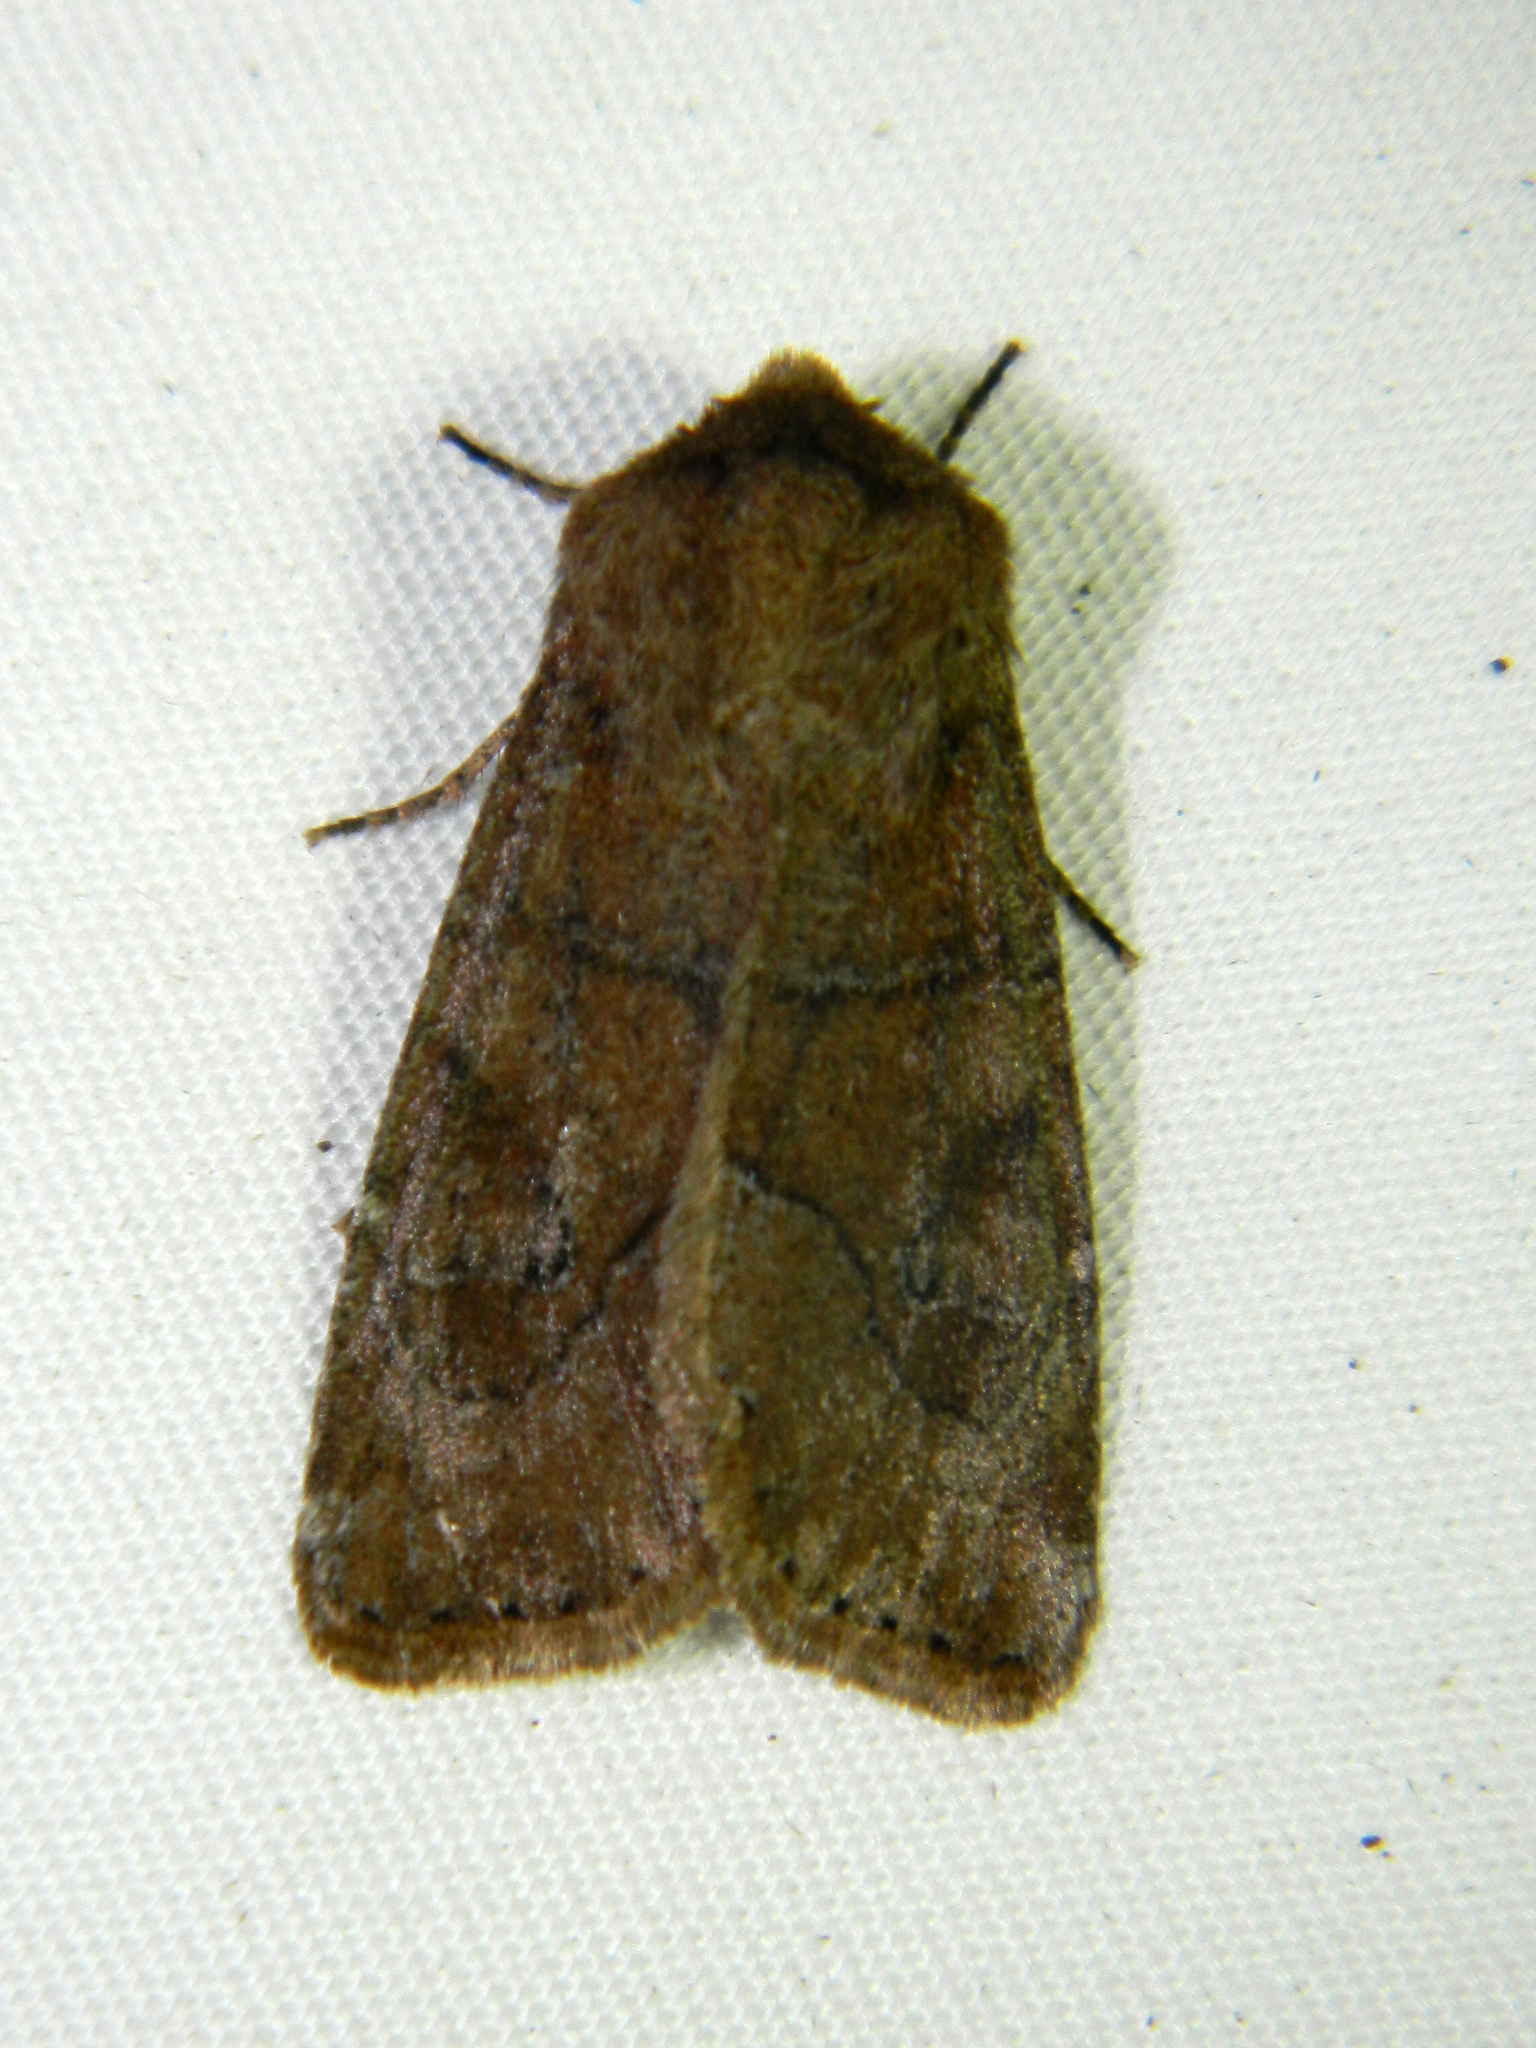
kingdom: Animalia
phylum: Arthropoda
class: Insecta
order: Lepidoptera
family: Noctuidae
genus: Crocigrapha
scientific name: Crocigrapha normani
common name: Norman's quaker
